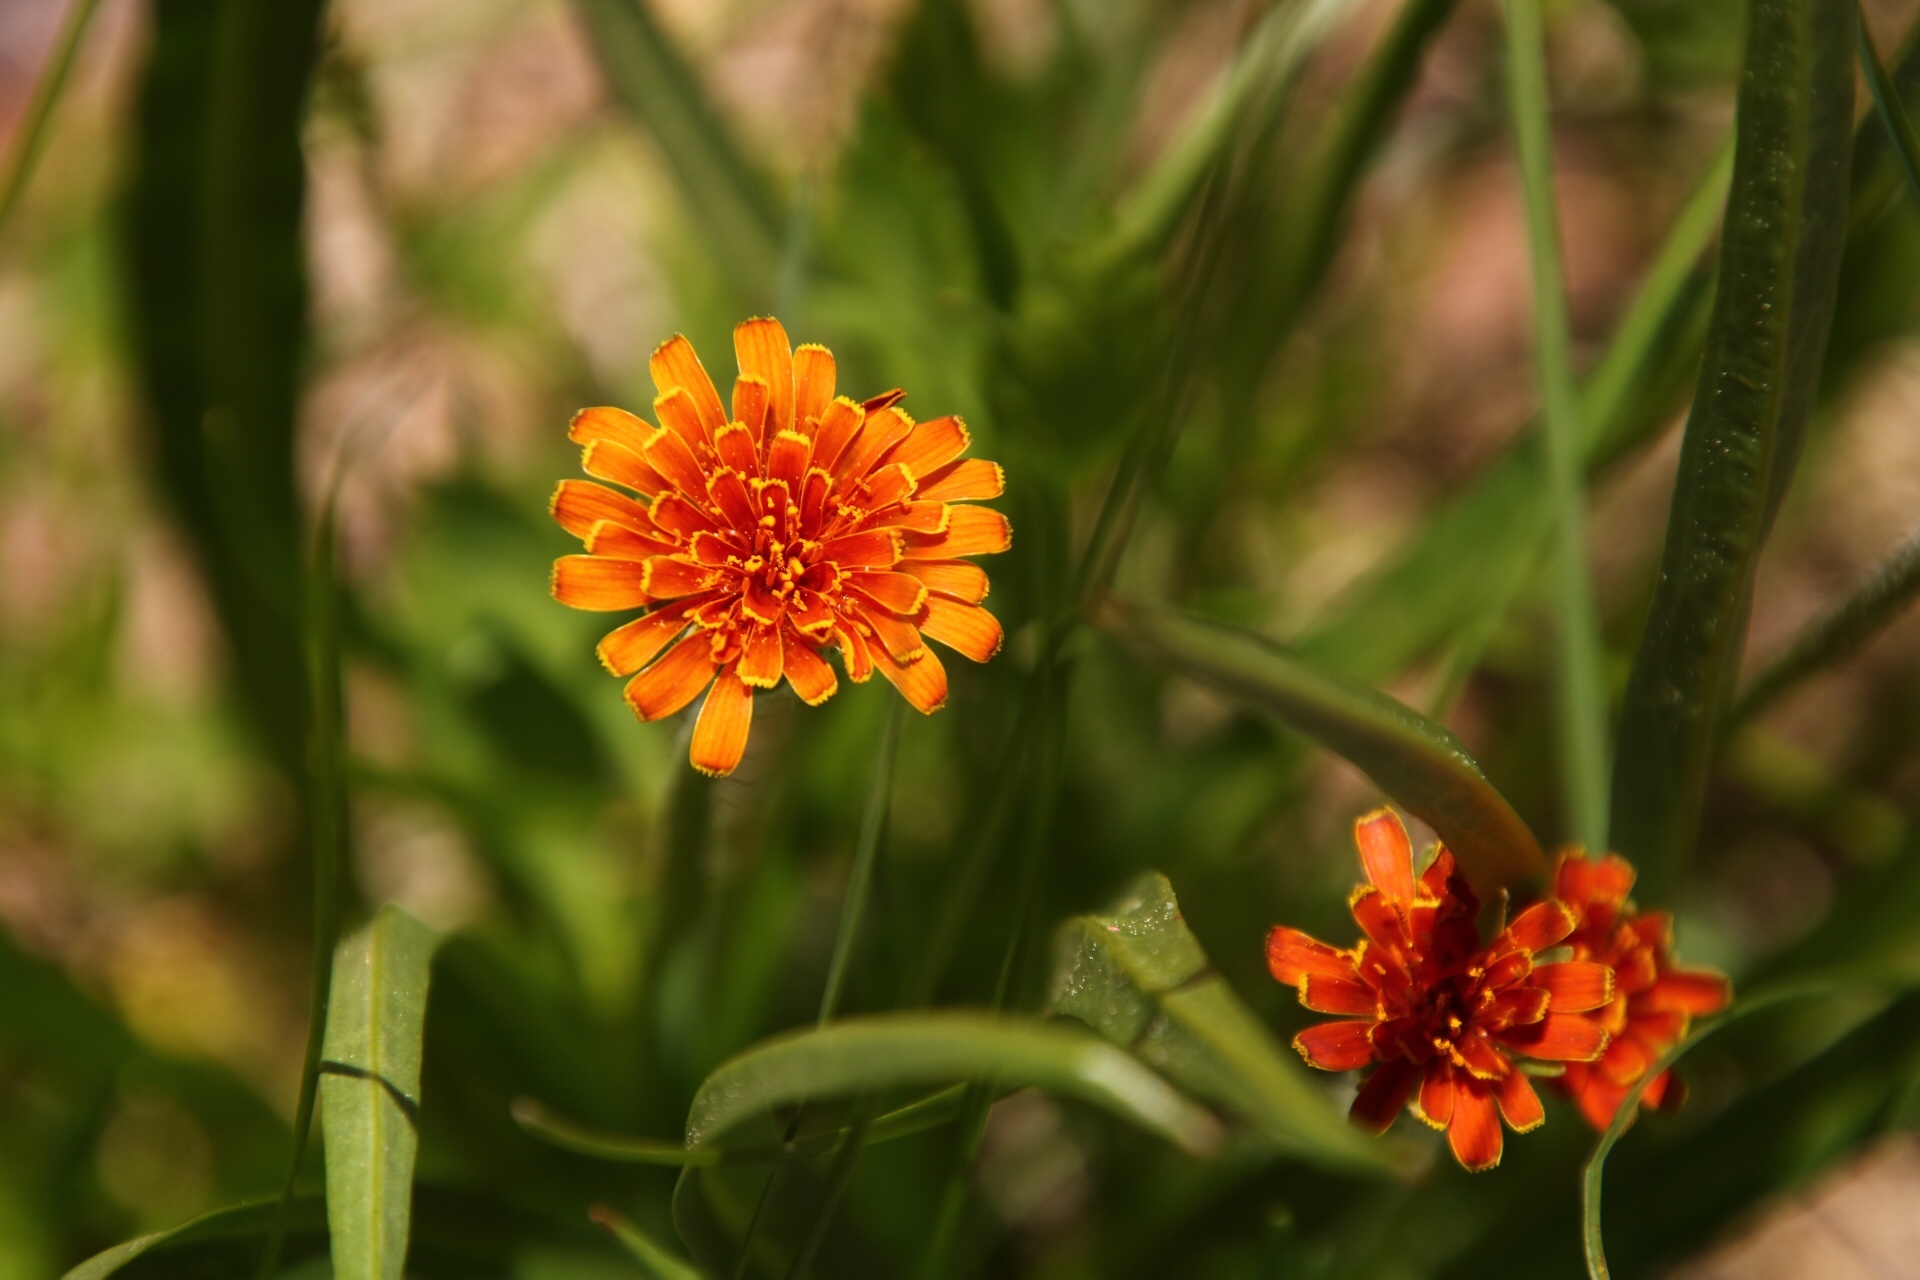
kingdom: Plantae
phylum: Tracheophyta
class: Magnoliopsida
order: Asterales
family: Asteraceae
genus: Agoseris
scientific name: Agoseris aurantiaca
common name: Mountain agoseris
